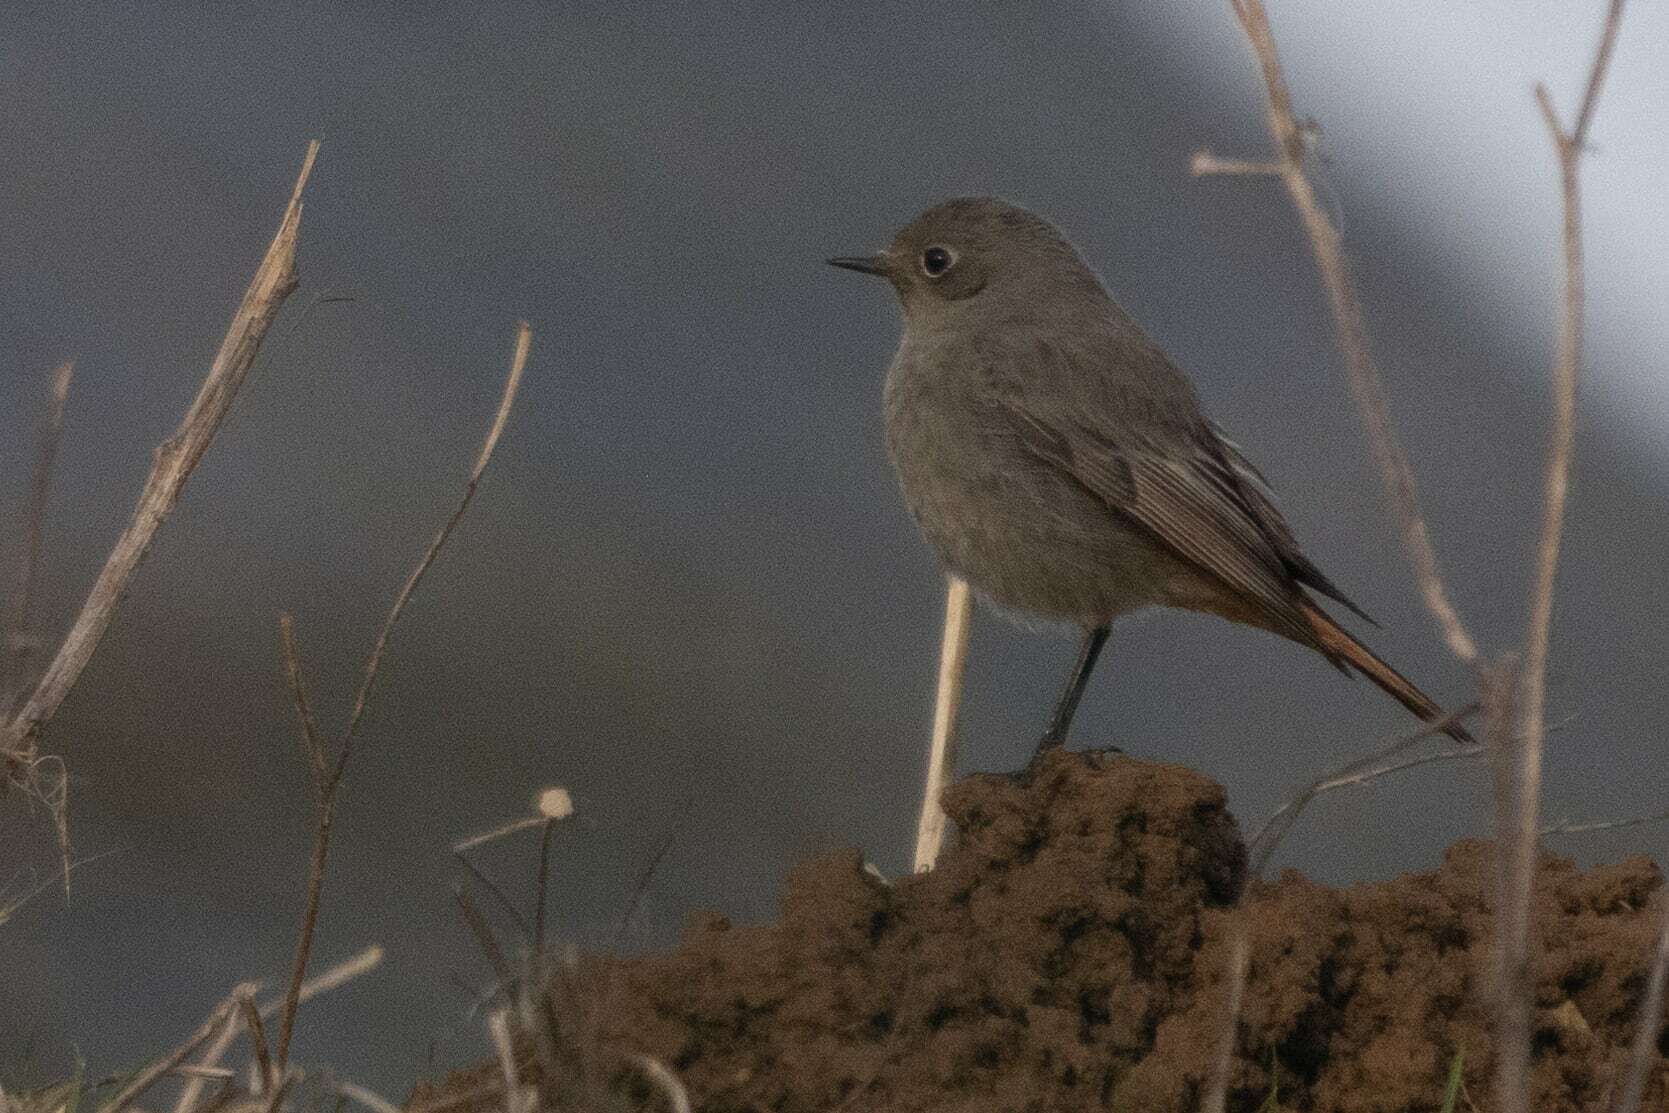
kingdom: Animalia
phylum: Chordata
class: Aves
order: Passeriformes
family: Muscicapidae
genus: Phoenicurus
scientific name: Phoenicurus ochruros
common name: Black redstart
